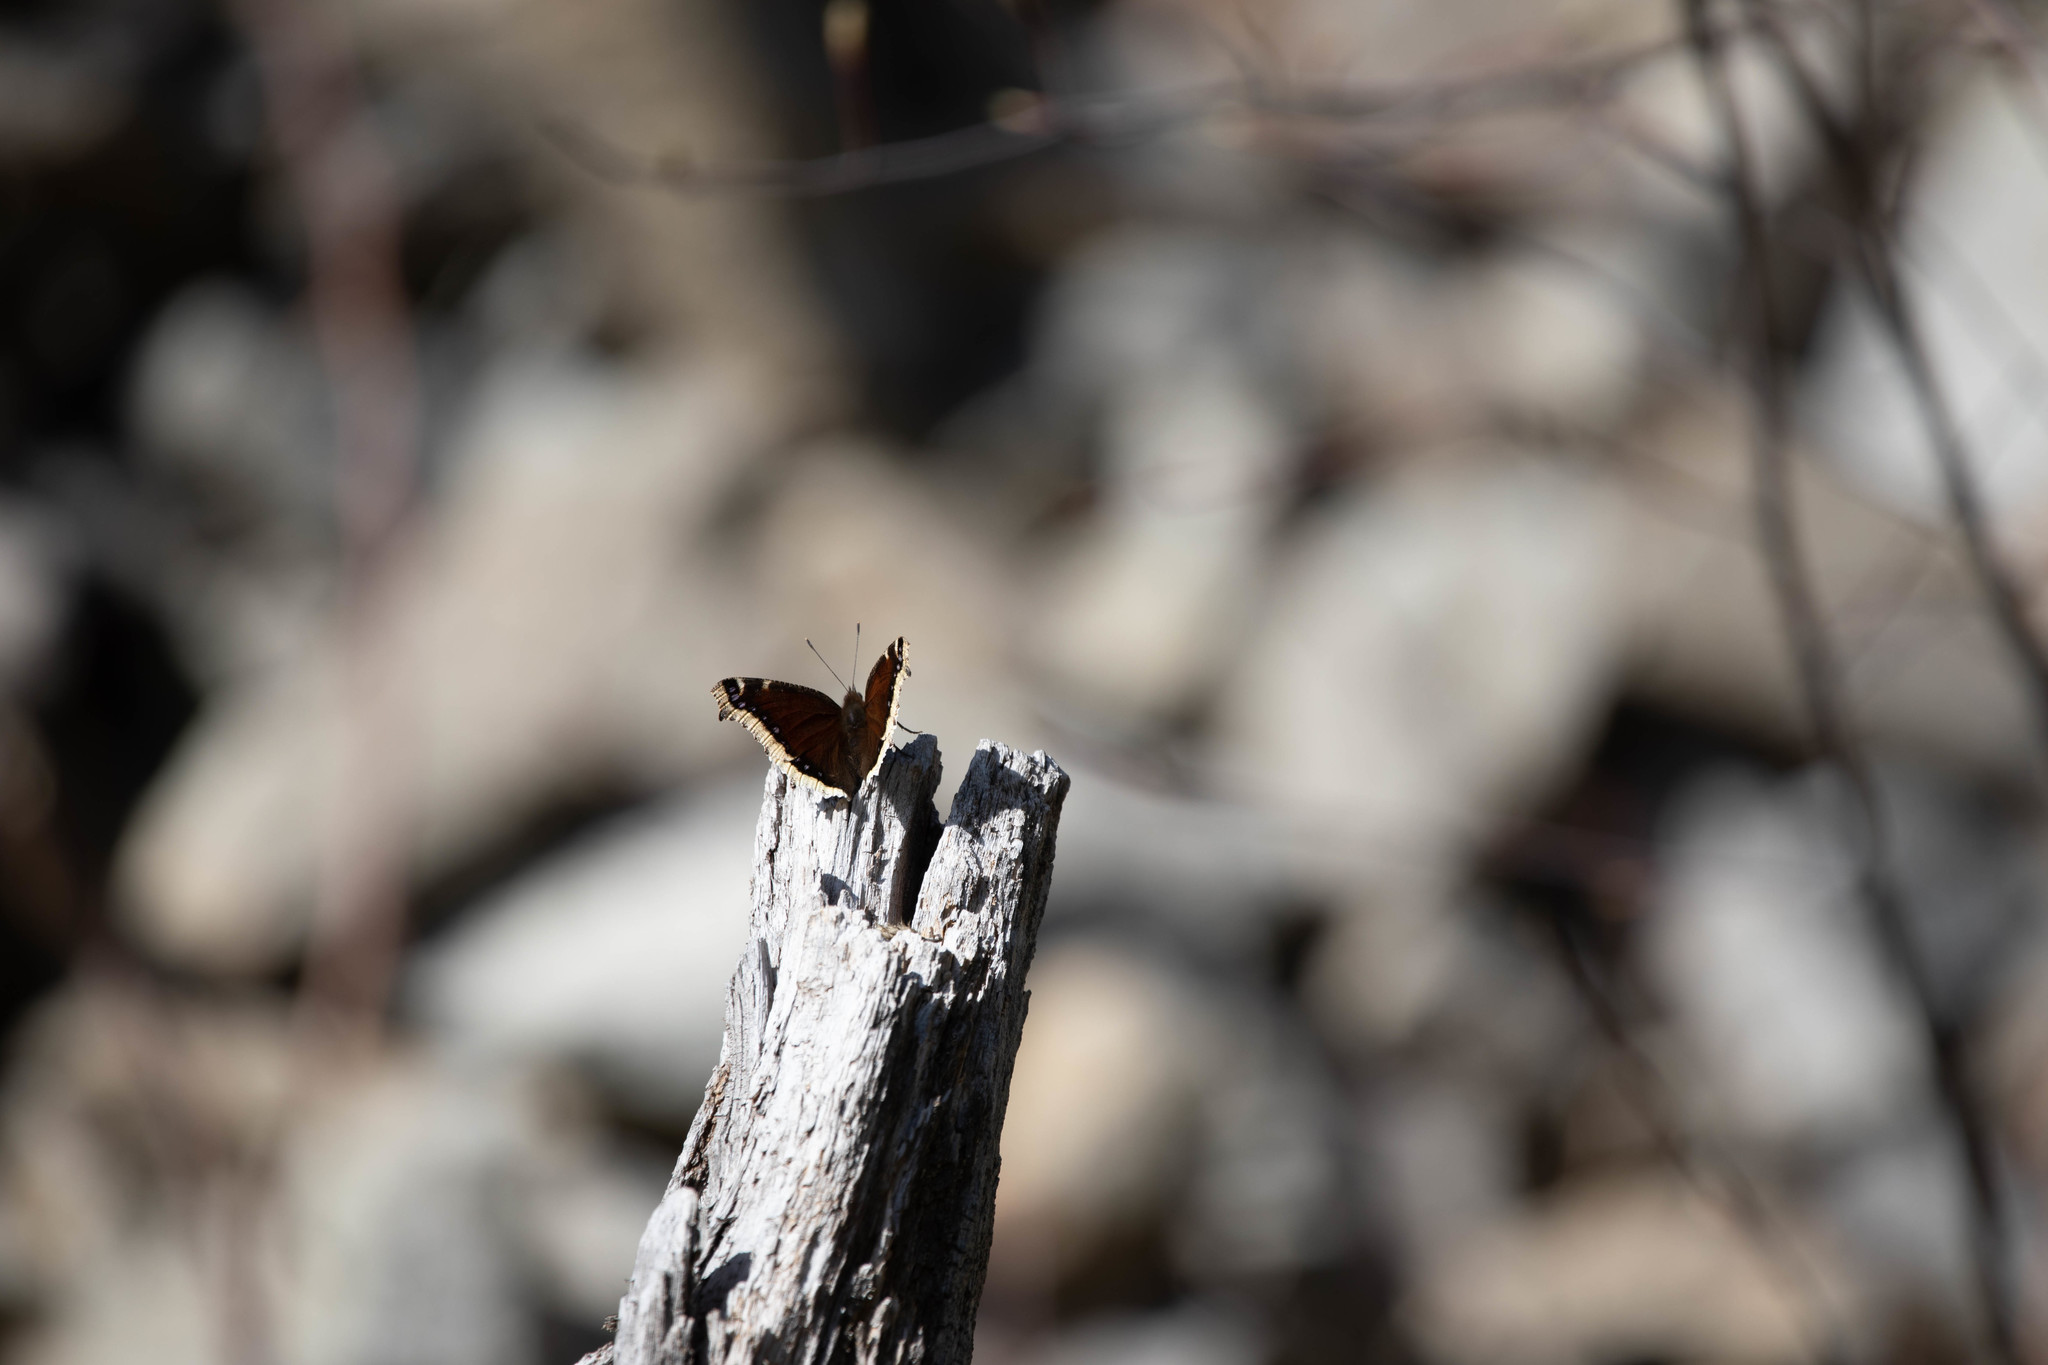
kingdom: Animalia
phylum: Arthropoda
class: Insecta
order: Lepidoptera
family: Nymphalidae
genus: Nymphalis
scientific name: Nymphalis antiopa
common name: Camberwell beauty
